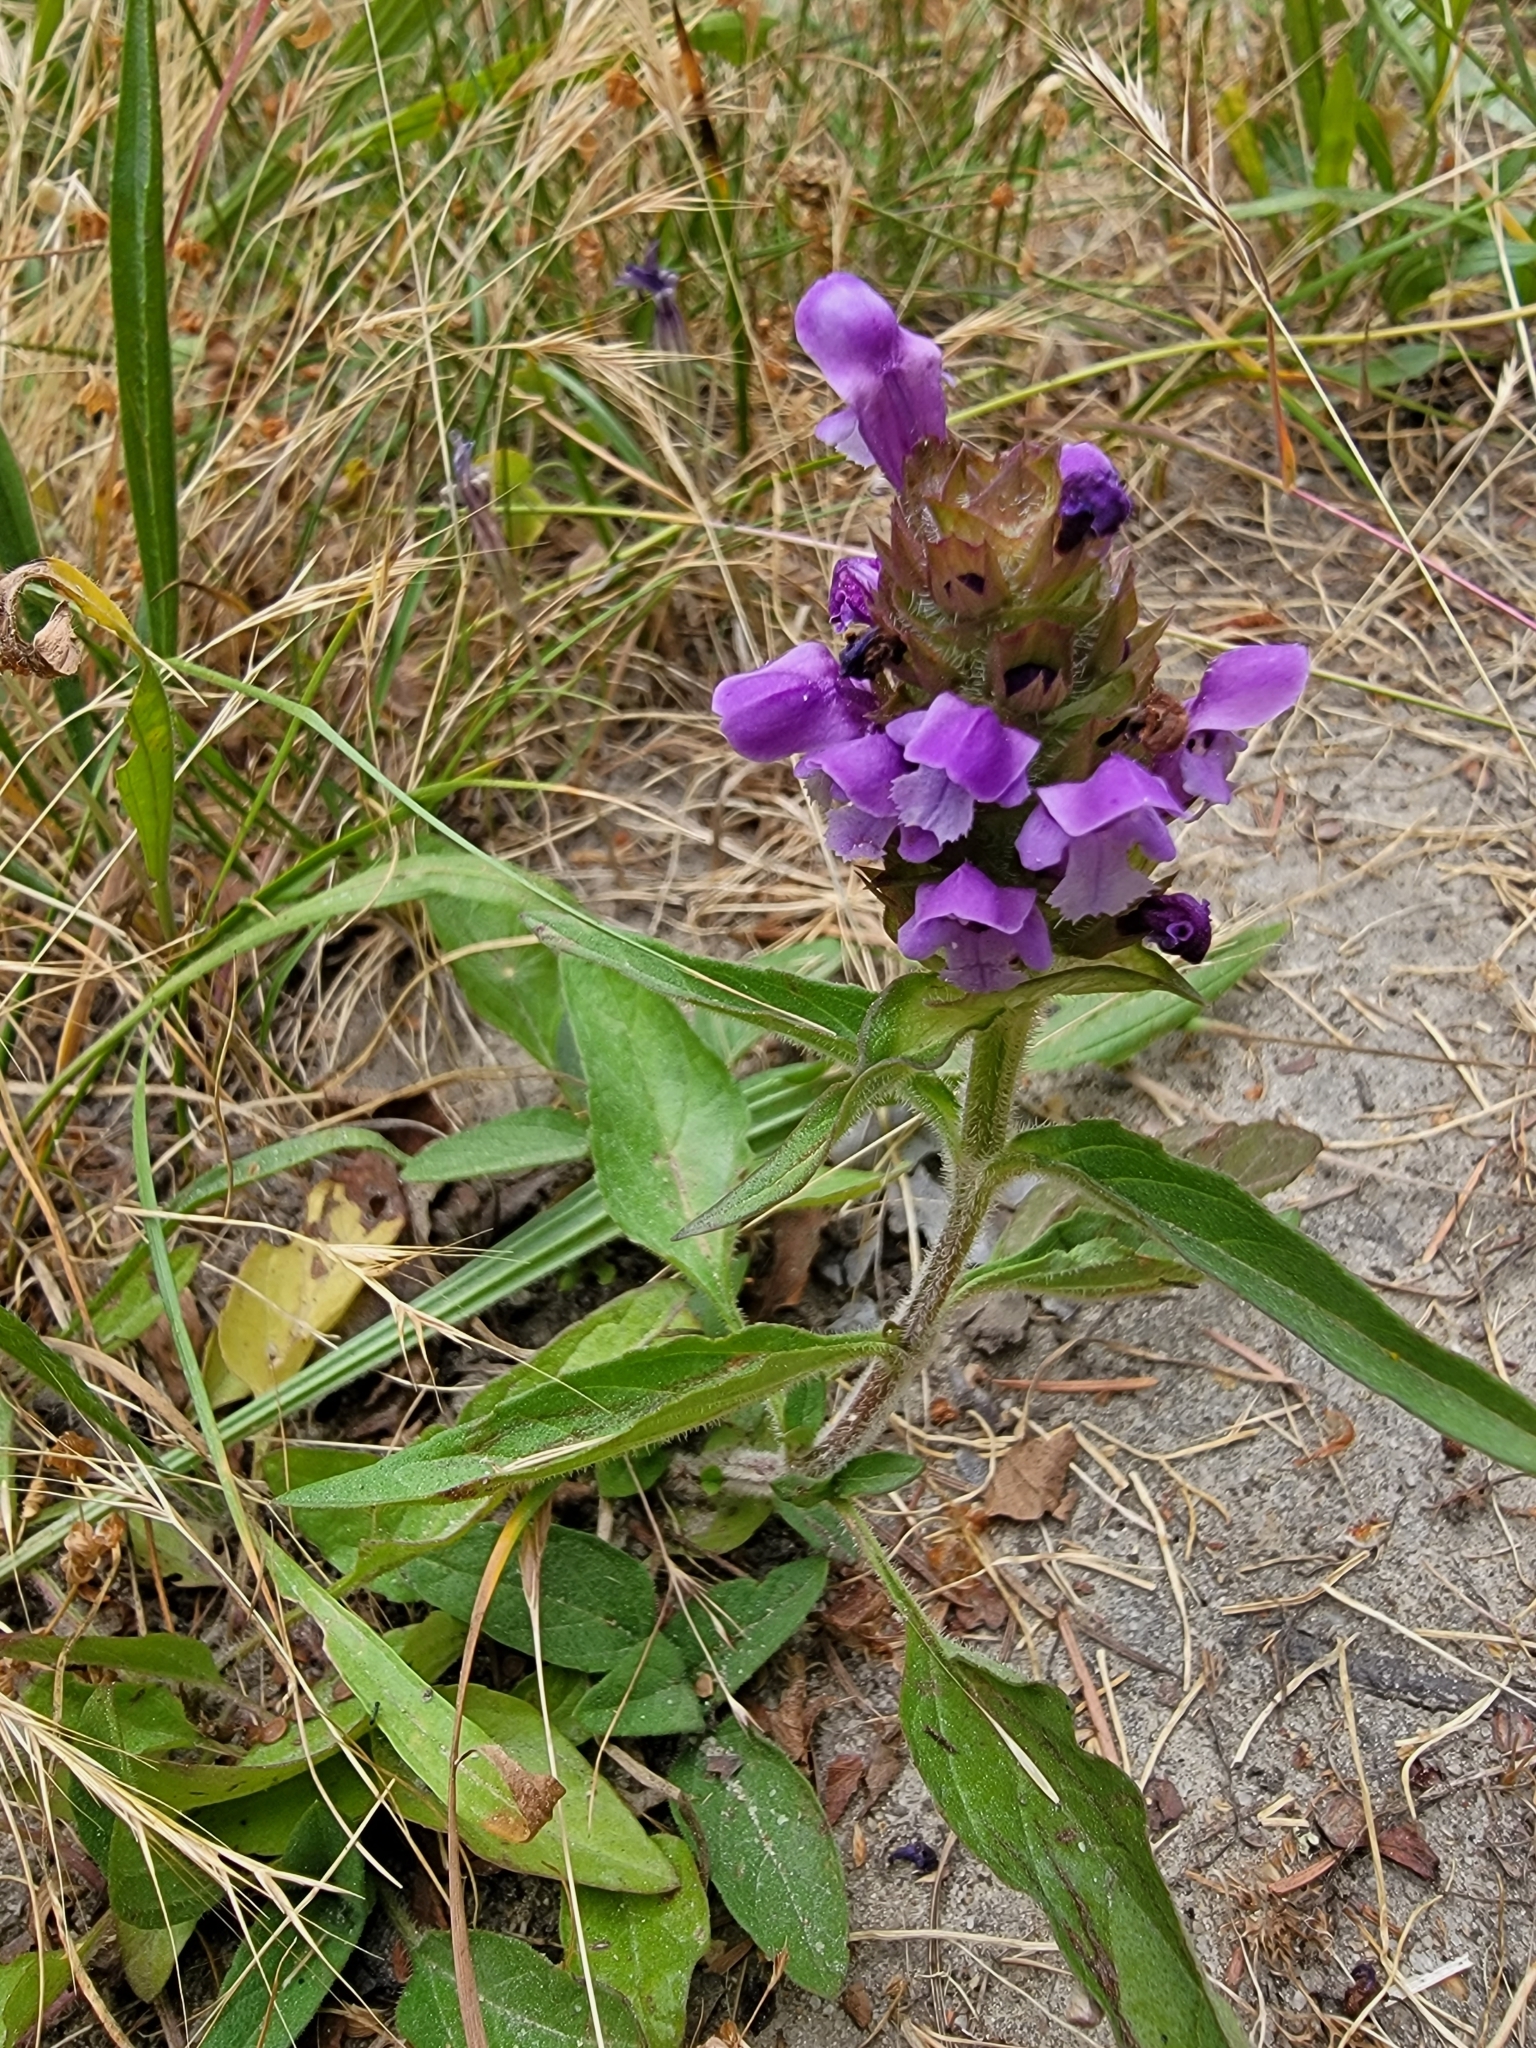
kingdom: Plantae
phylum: Tracheophyta
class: Magnoliopsida
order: Lamiales
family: Lamiaceae
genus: Prunella
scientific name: Prunella vulgaris
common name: Heal-all
